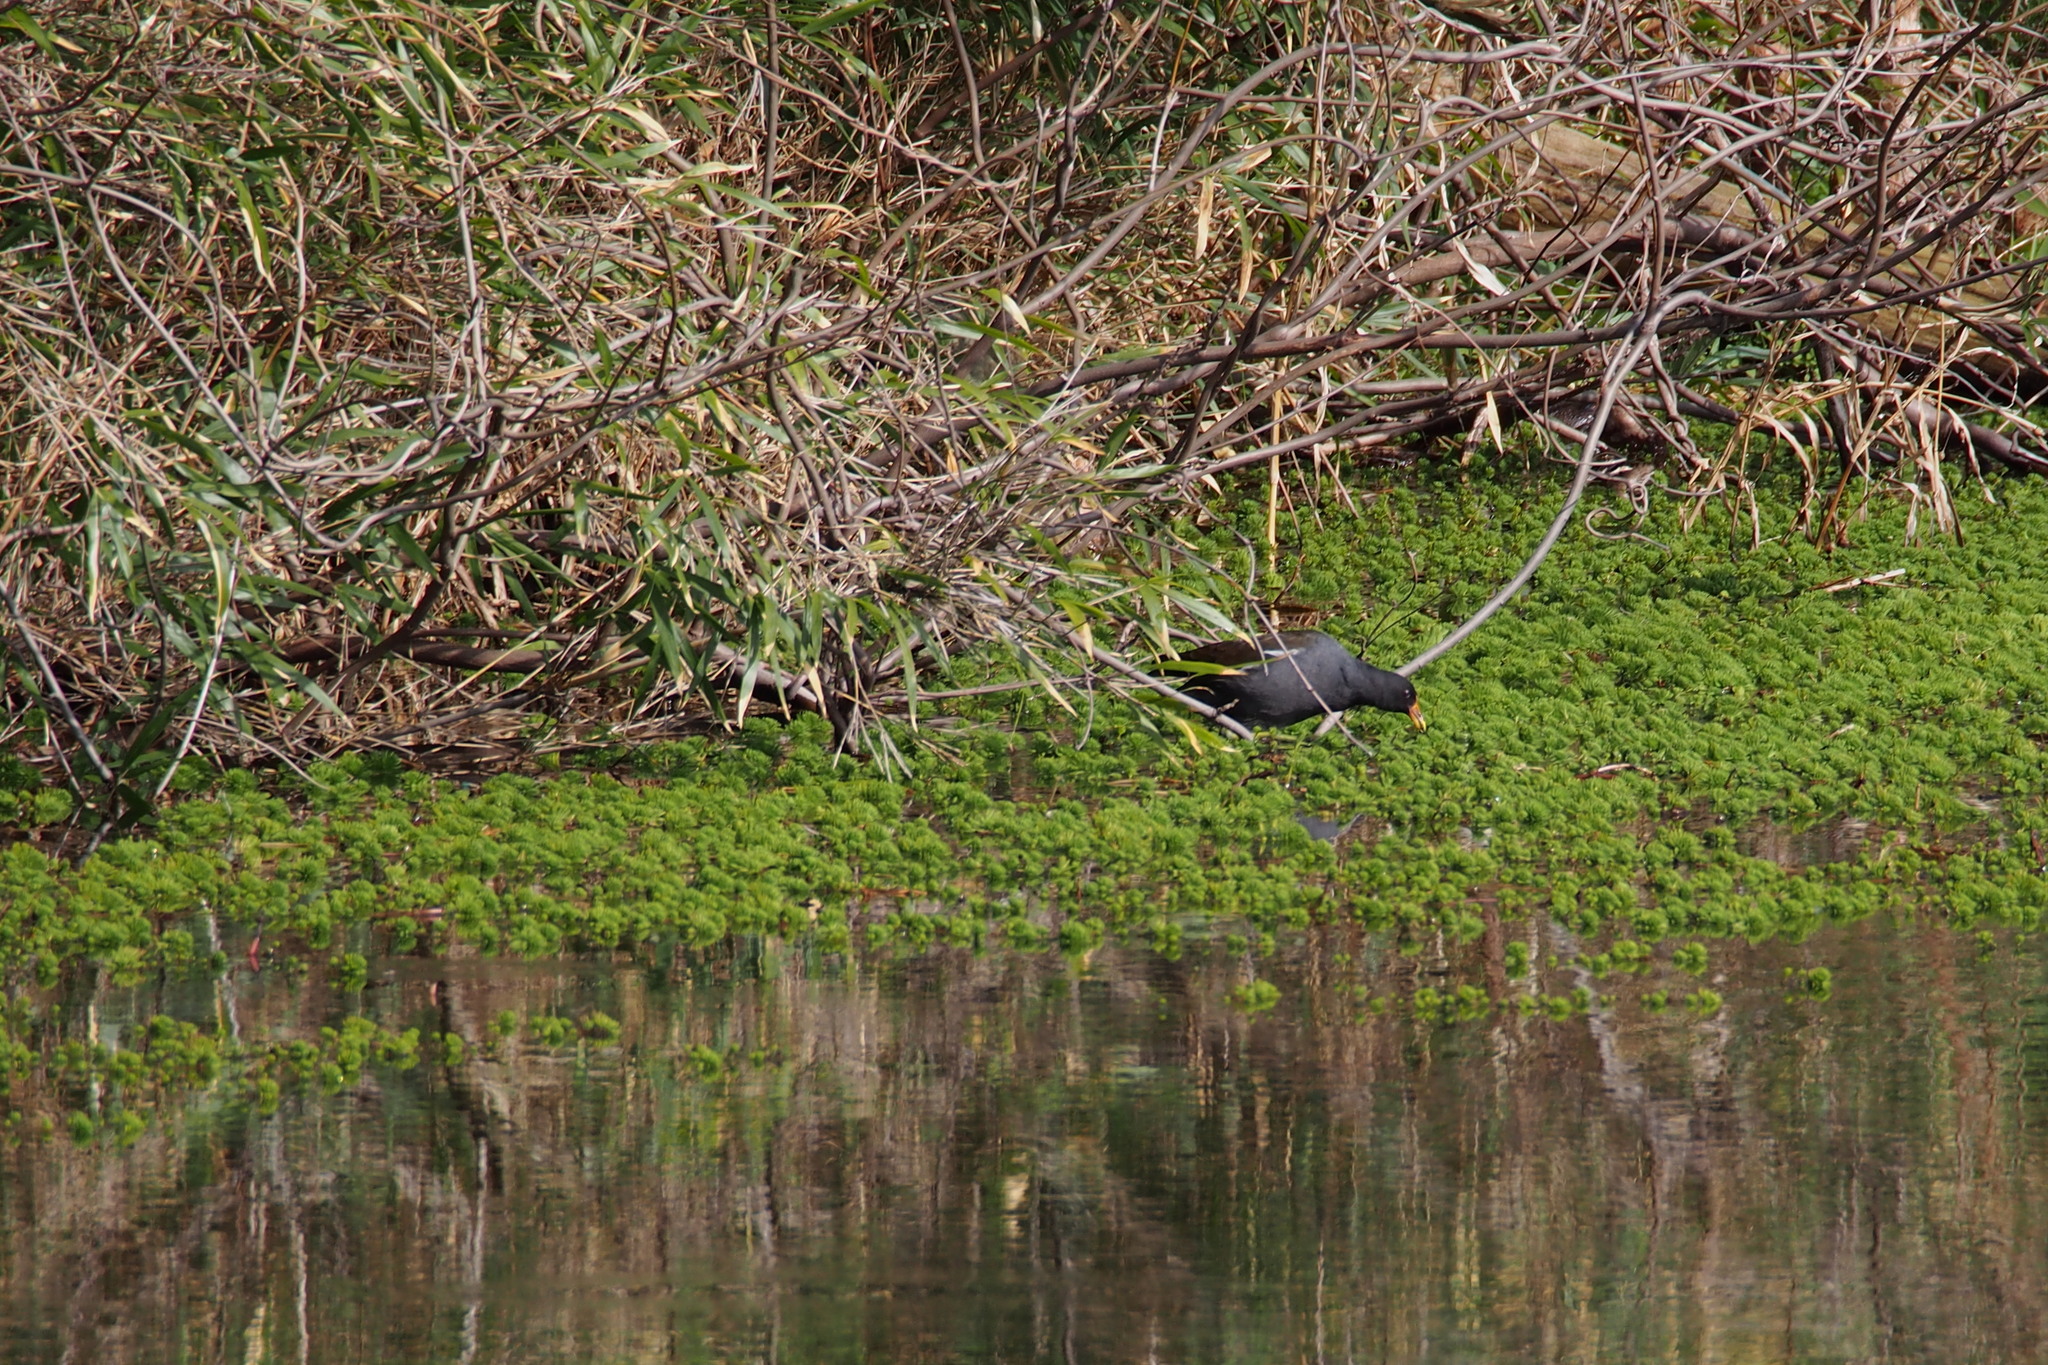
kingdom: Animalia
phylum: Chordata
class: Aves
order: Gruiformes
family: Rallidae
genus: Gallinula
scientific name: Gallinula chloropus
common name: Common moorhen
